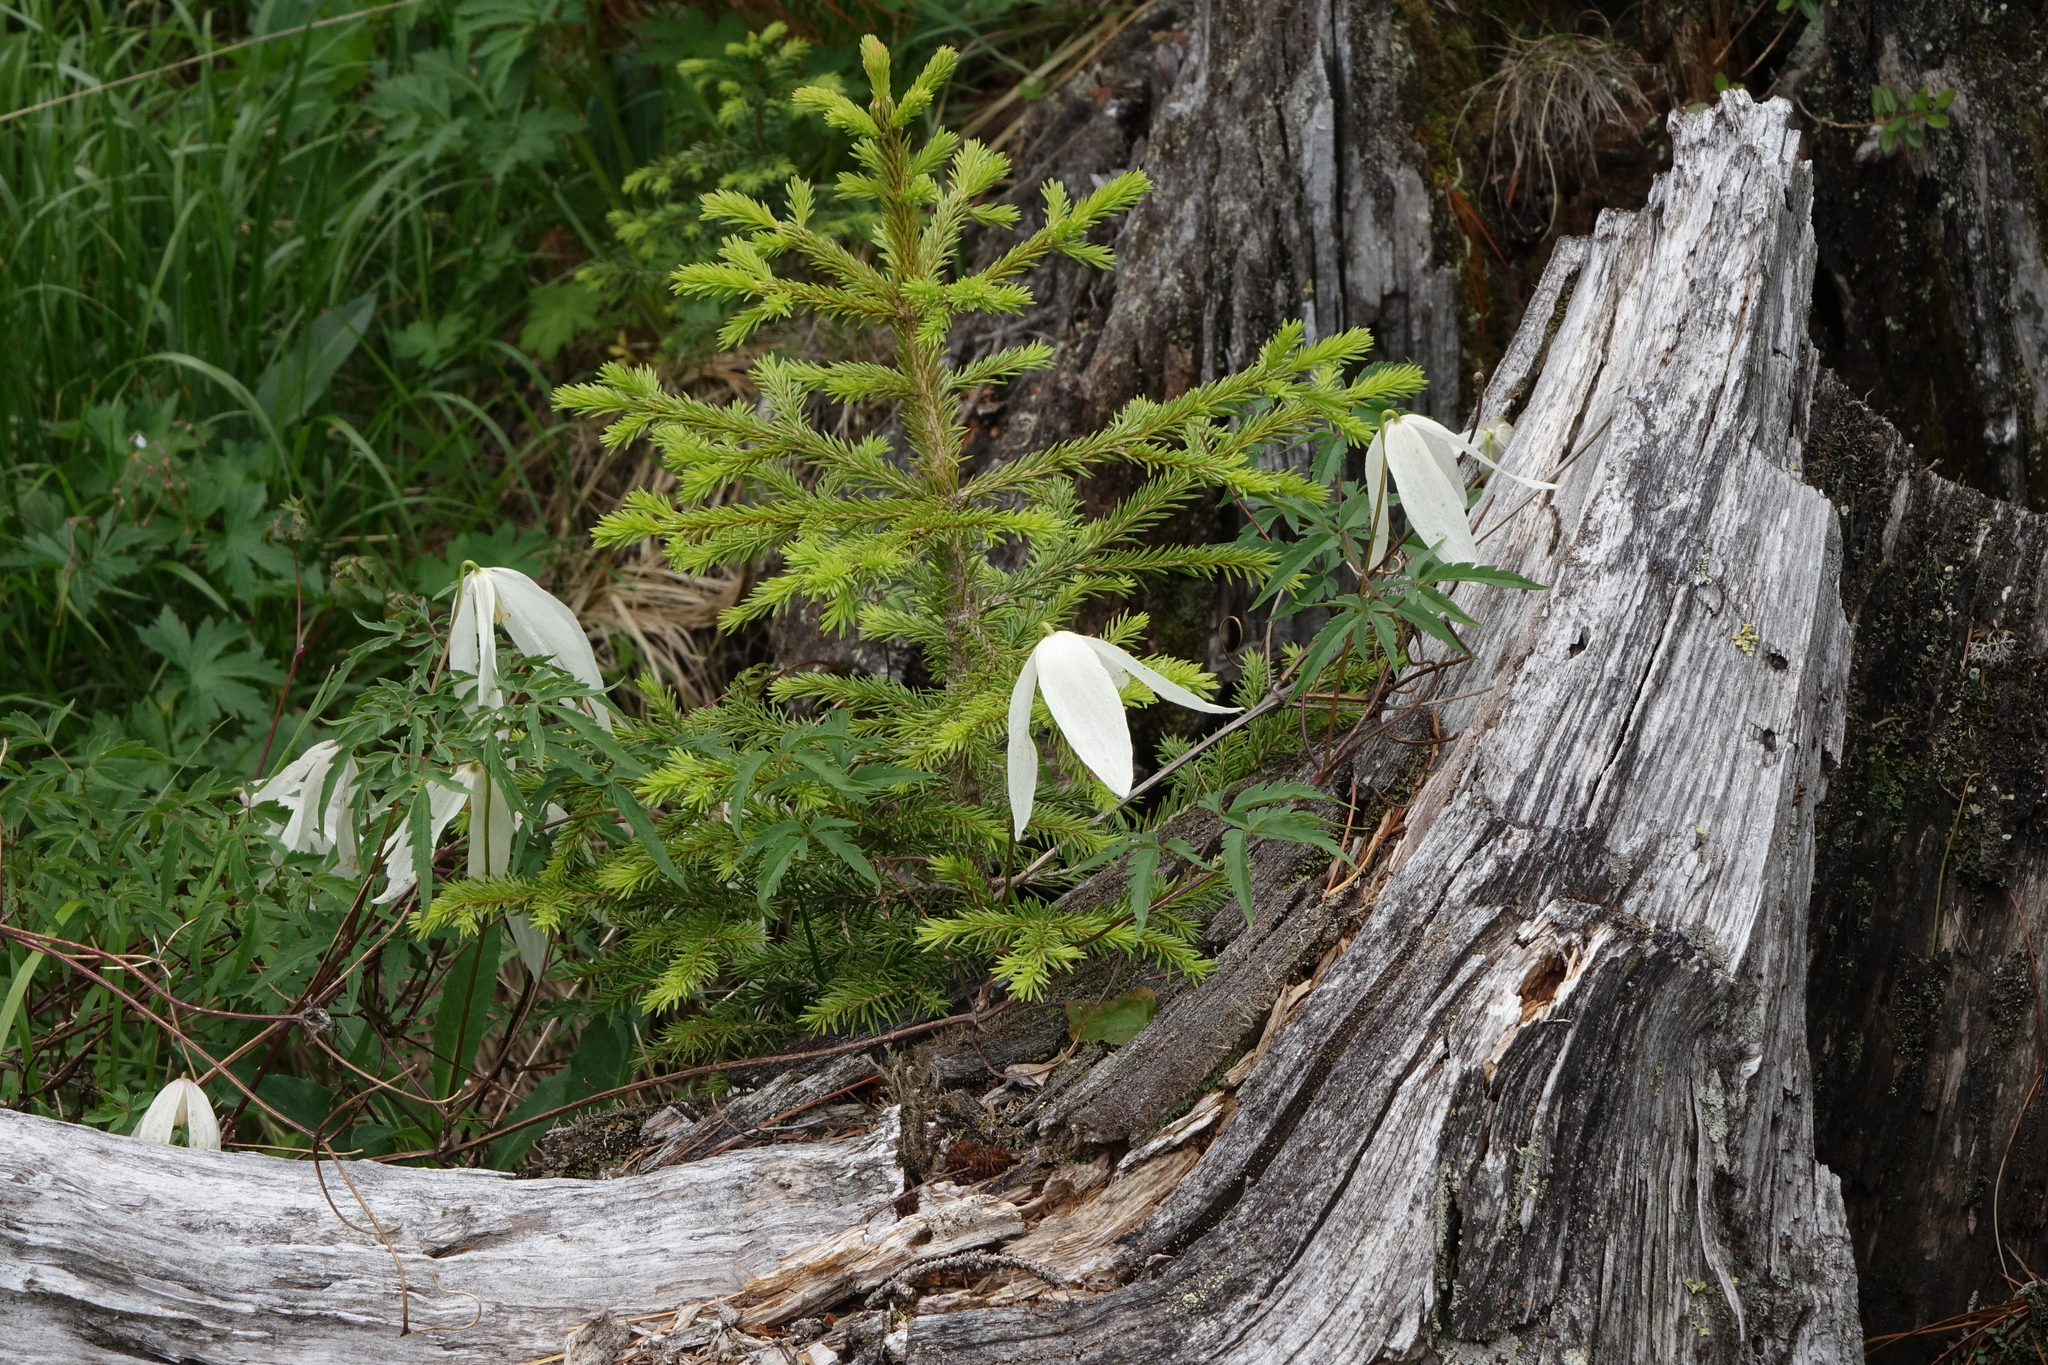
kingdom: Plantae
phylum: Tracheophyta
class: Pinopsida
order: Pinales
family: Pinaceae
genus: Picea
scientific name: Picea obovata
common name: Siberian spruce
